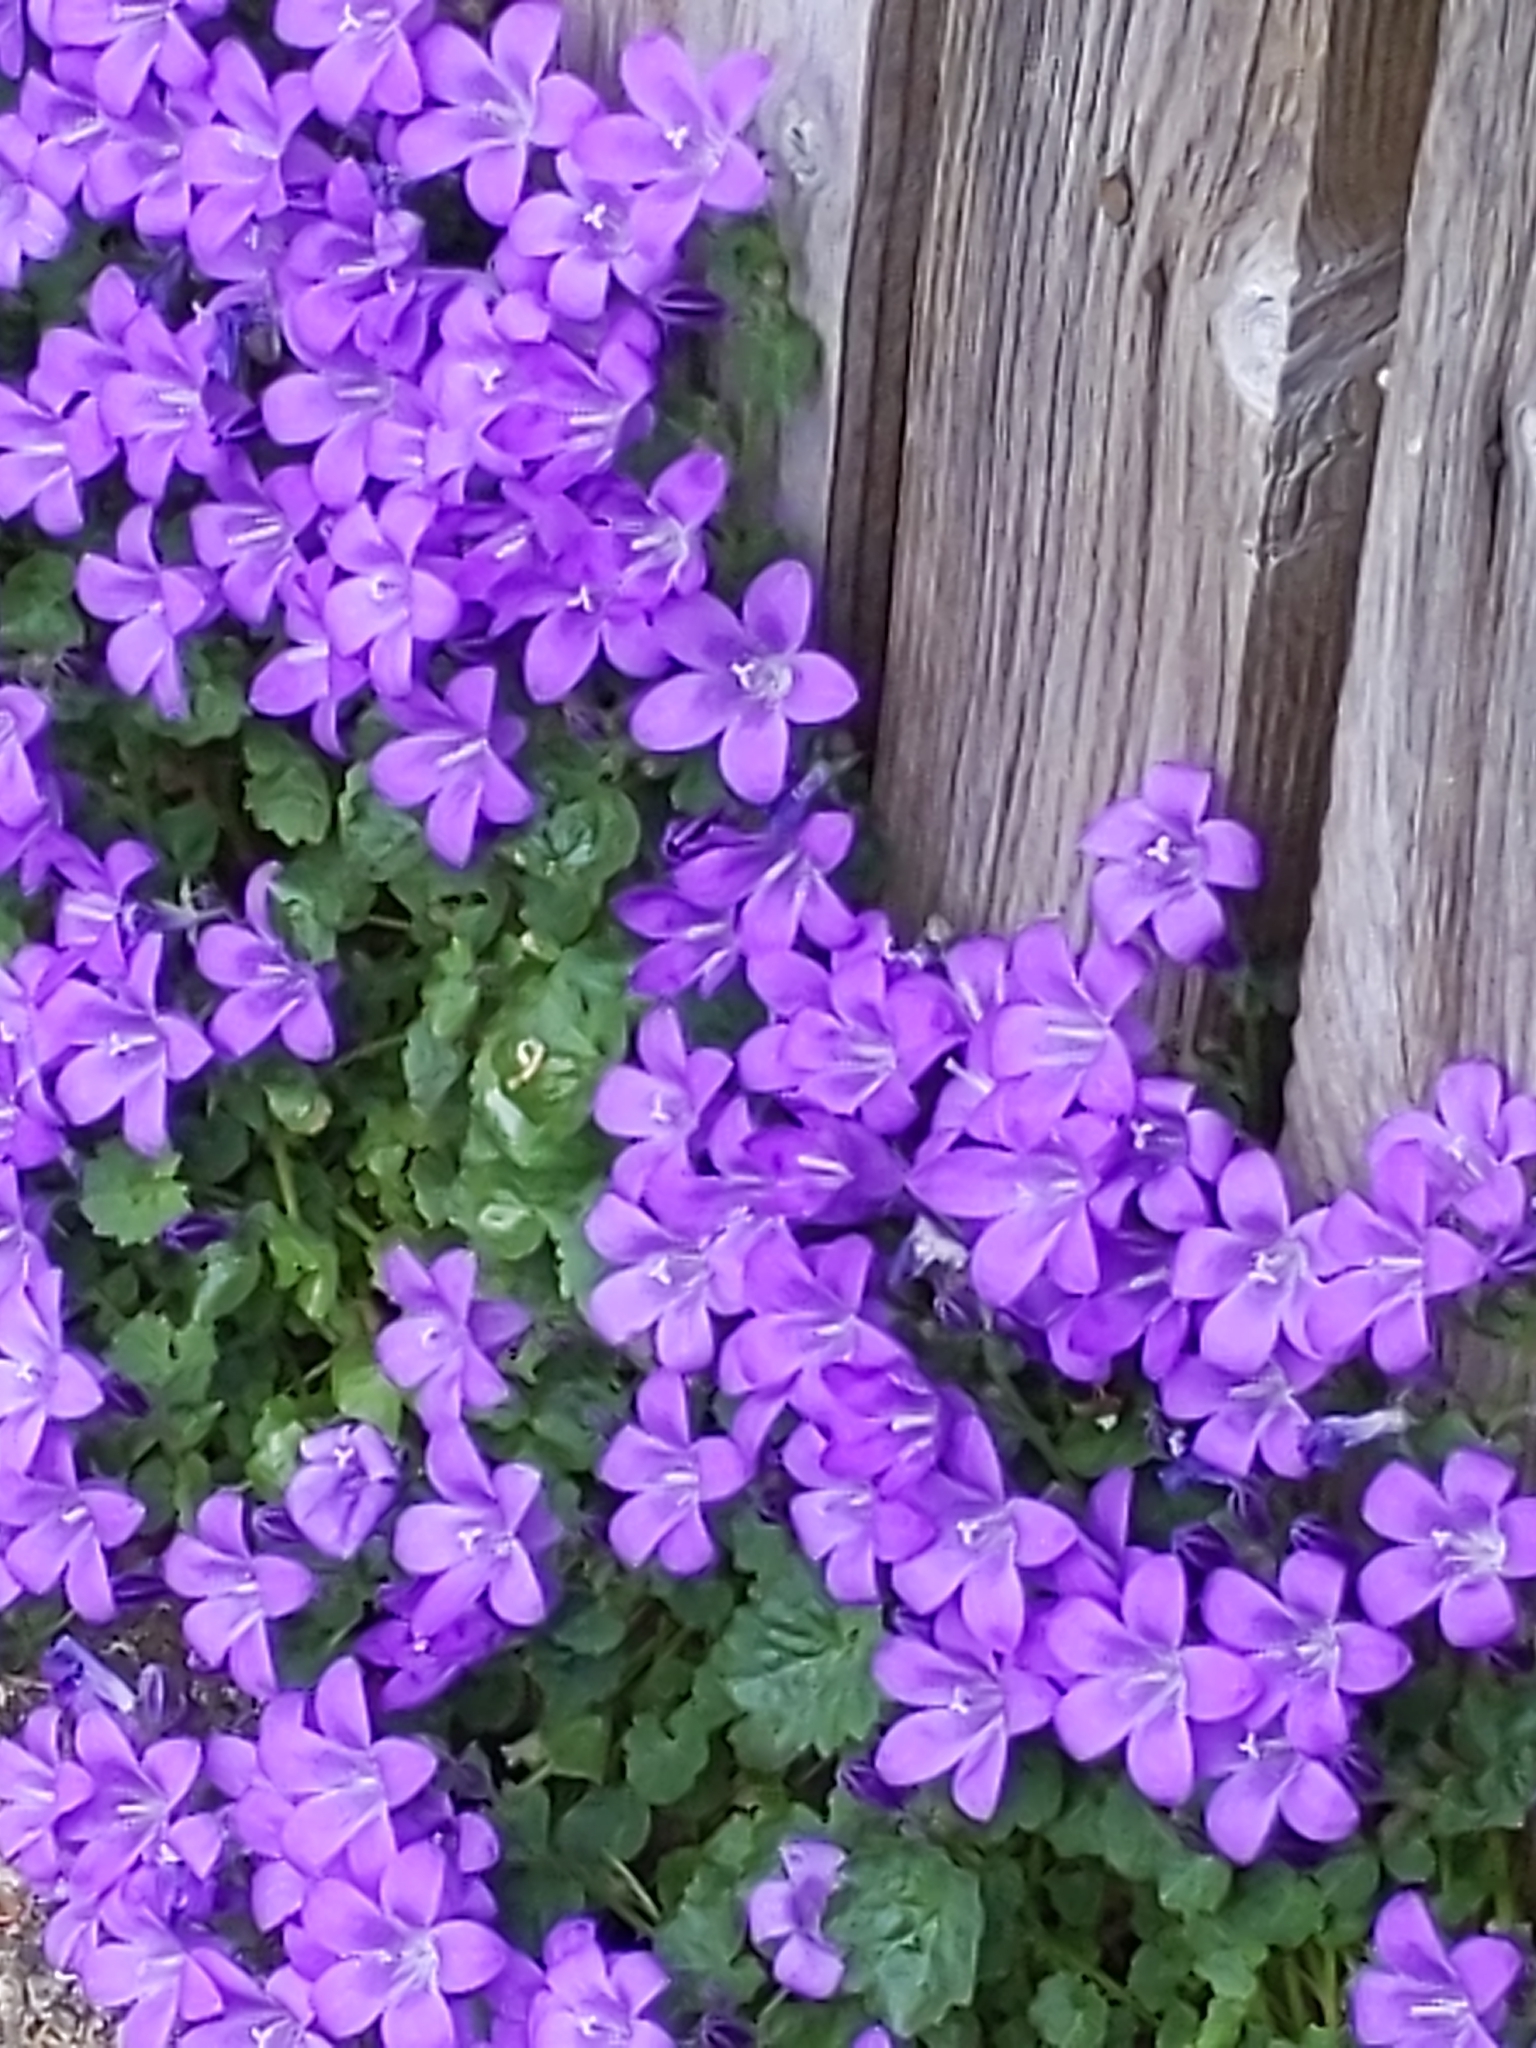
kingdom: Plantae
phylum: Tracheophyta
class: Magnoliopsida
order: Asterales
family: Campanulaceae
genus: Campanula
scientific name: Campanula portenschlagiana
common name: Adria bellflower
